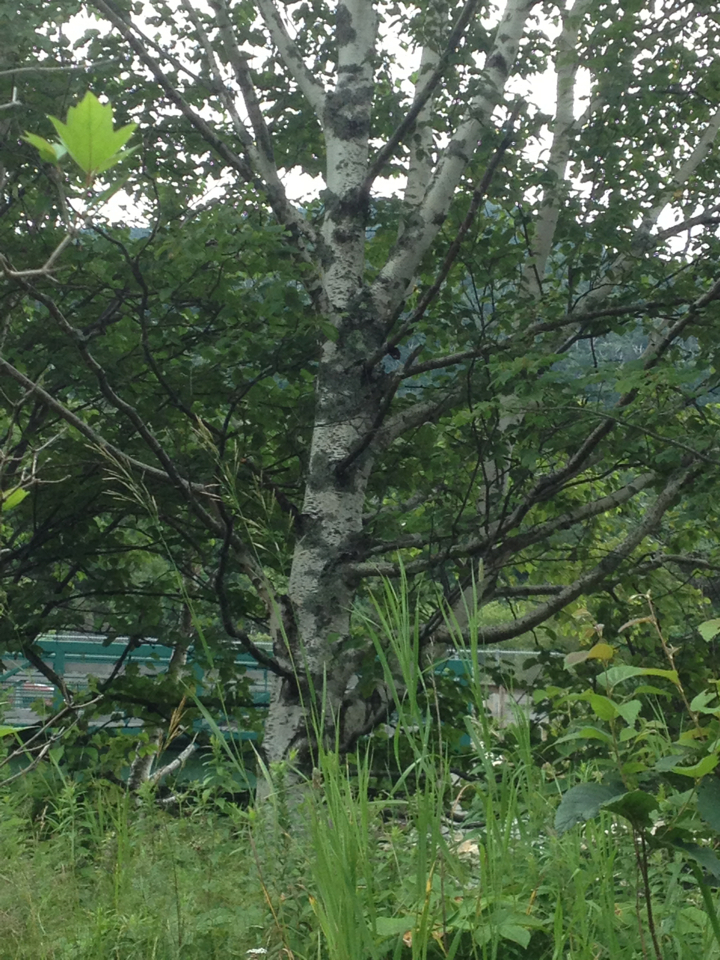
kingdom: Plantae
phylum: Tracheophyta
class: Magnoliopsida
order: Fagales
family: Betulaceae
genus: Betula
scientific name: Betula papyrifera
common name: Paper birch
